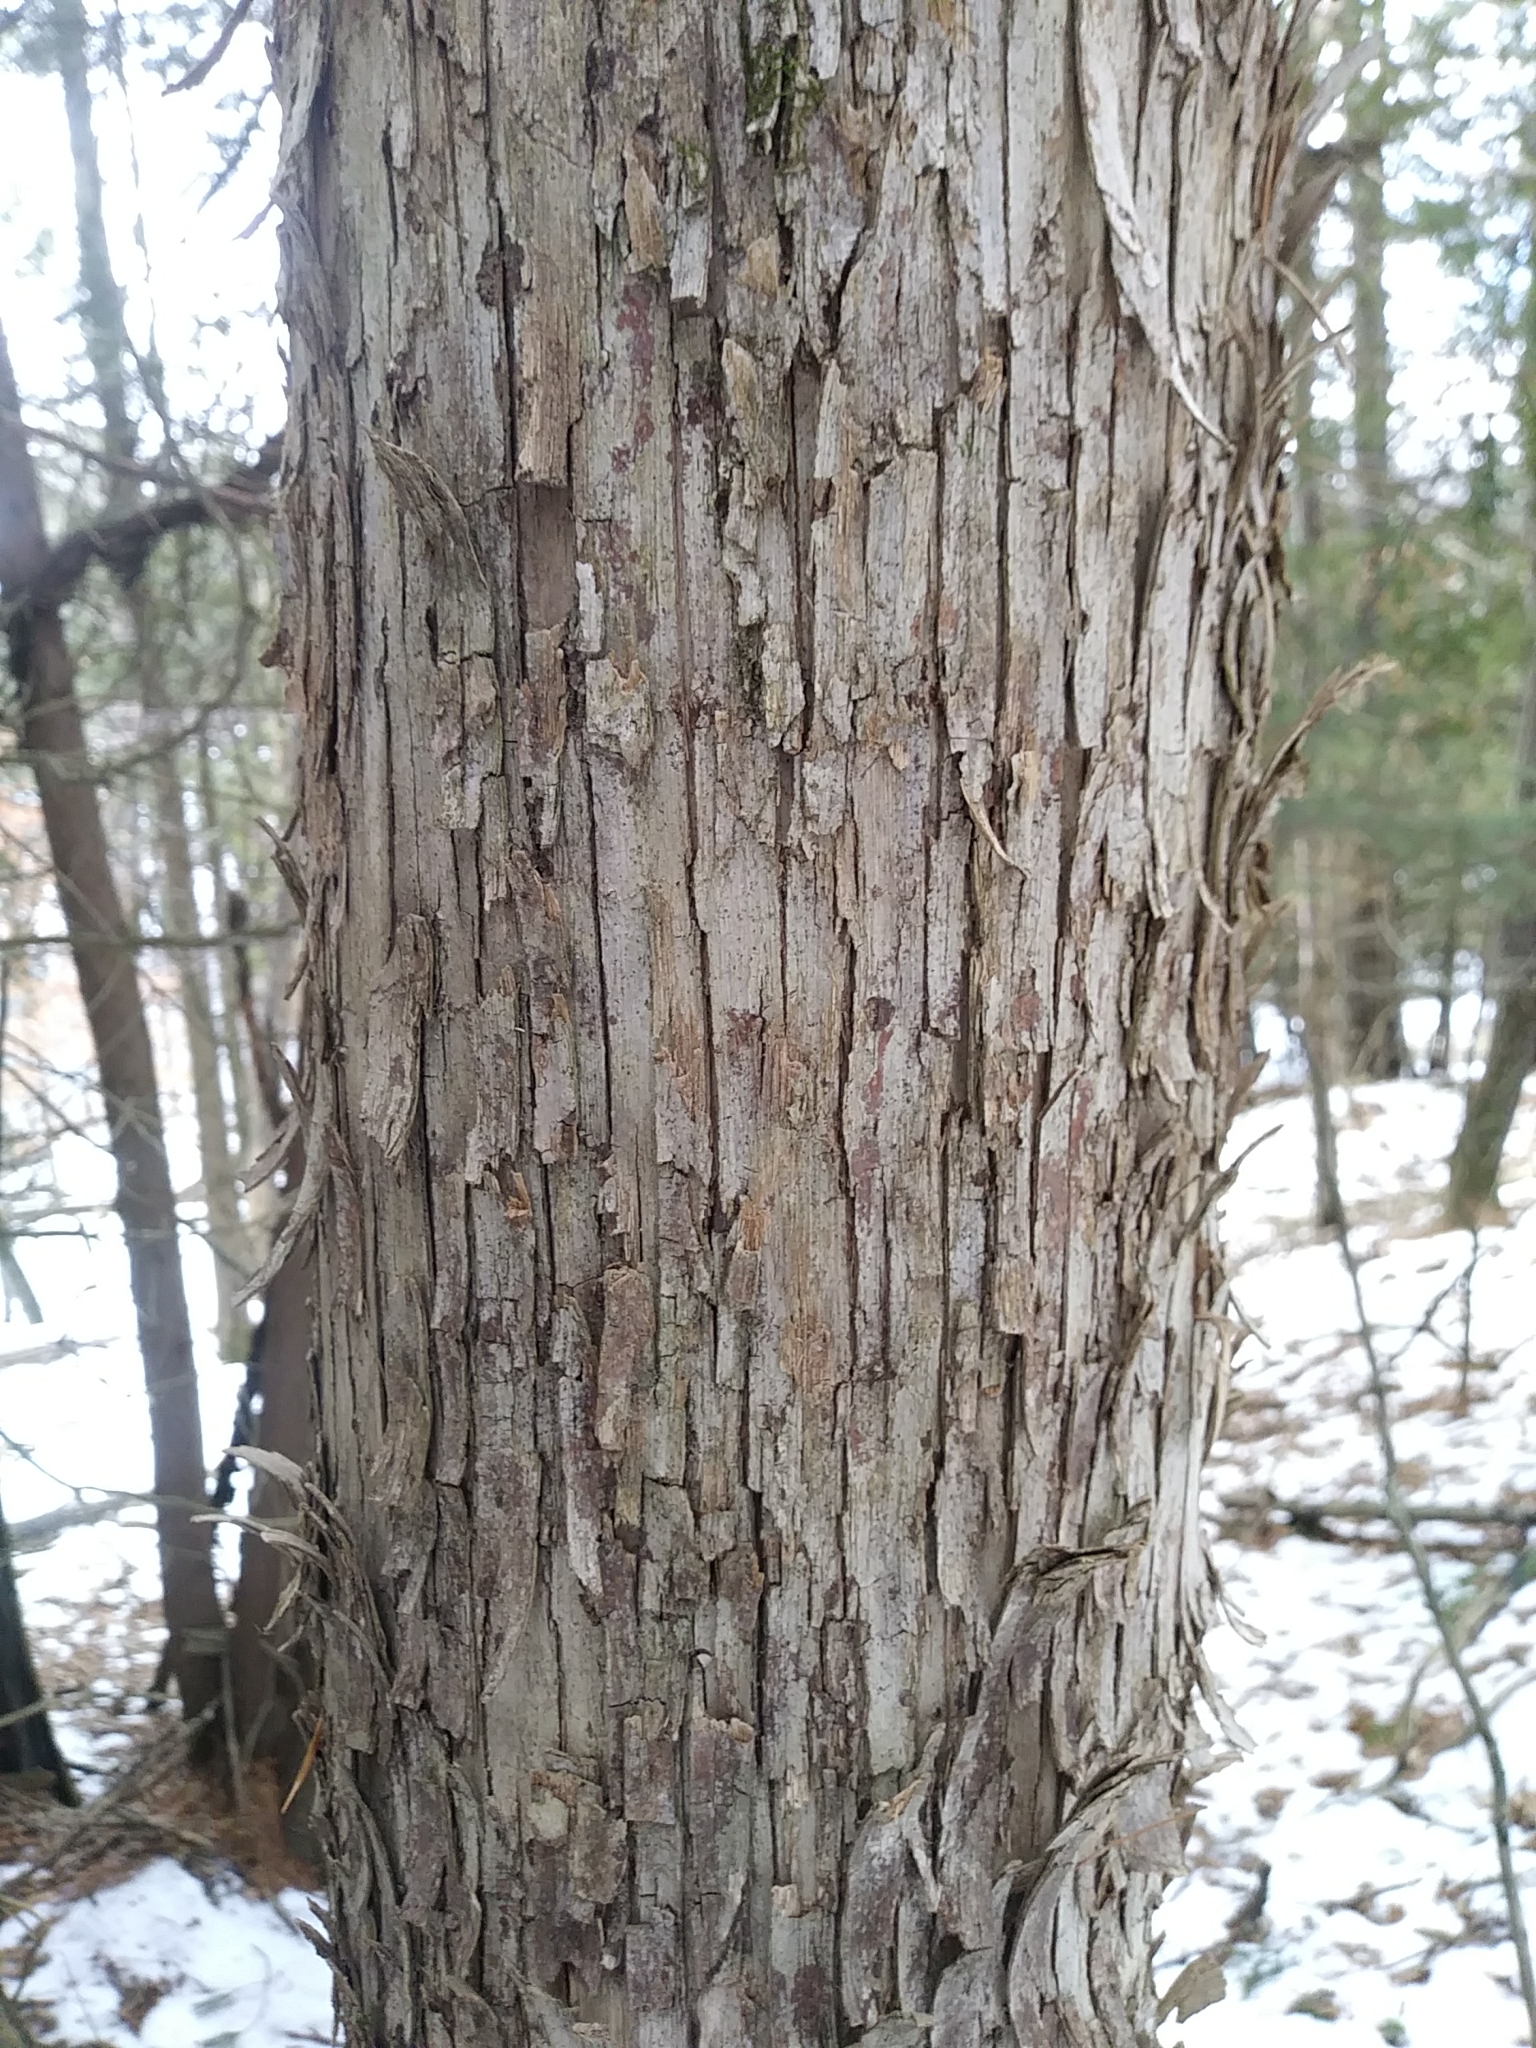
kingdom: Plantae
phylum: Tracheophyta
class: Magnoliopsida
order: Fagales
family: Betulaceae
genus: Ostrya
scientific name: Ostrya virginiana
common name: Ironwood
